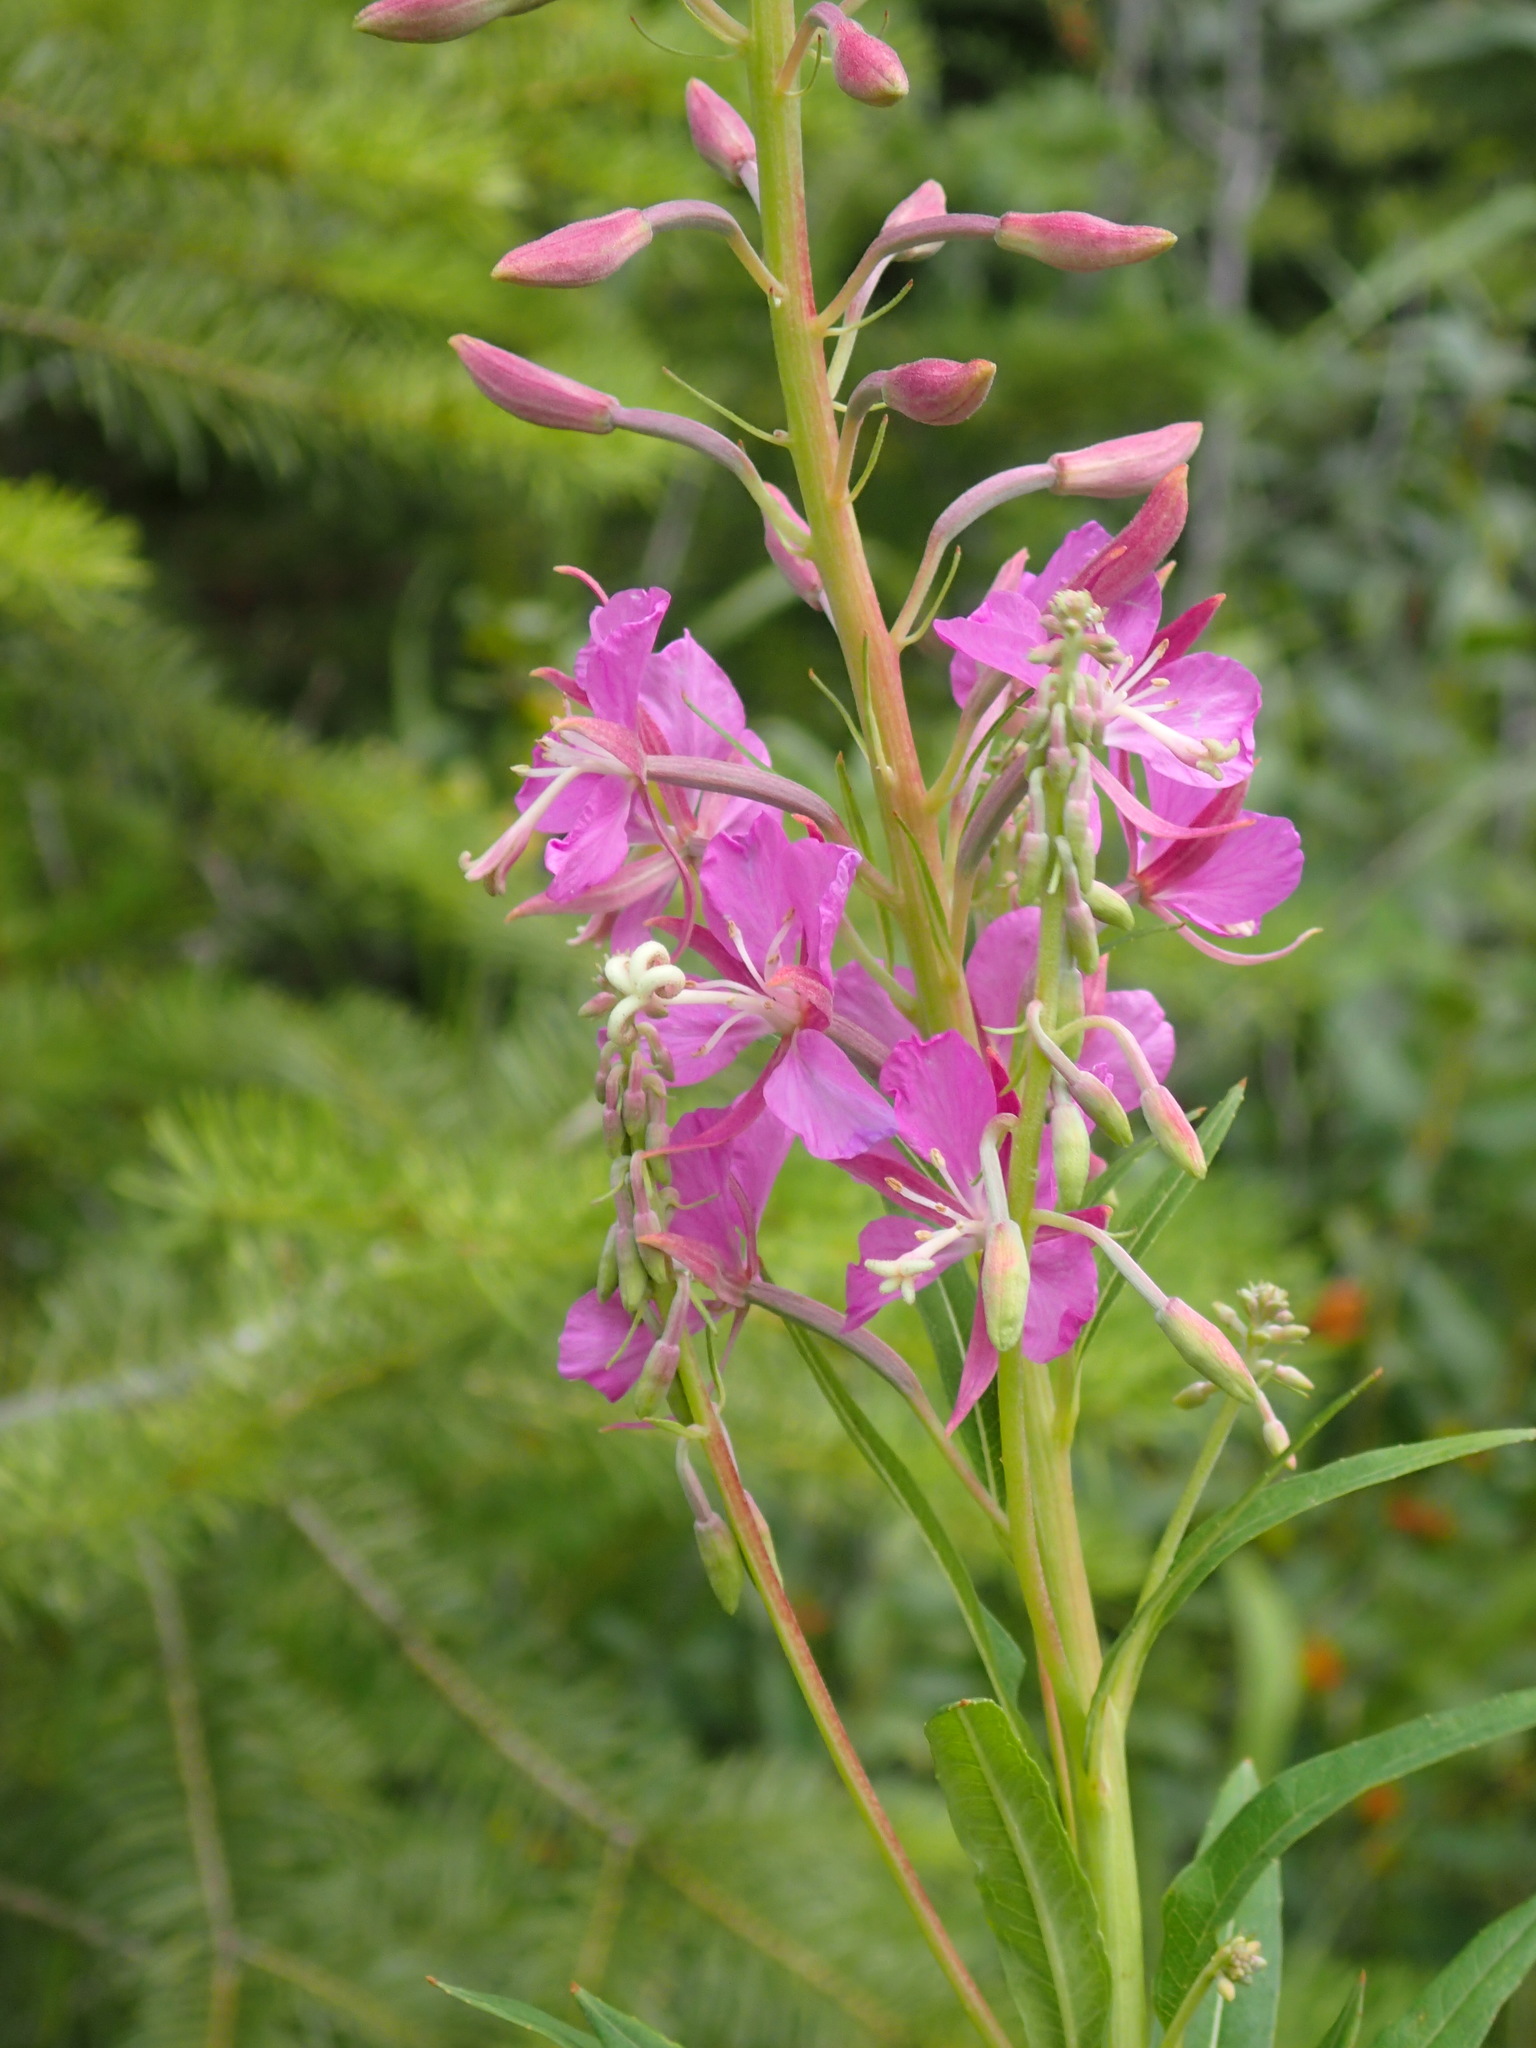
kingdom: Plantae
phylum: Tracheophyta
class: Magnoliopsida
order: Myrtales
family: Onagraceae
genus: Chamaenerion
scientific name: Chamaenerion angustifolium
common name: Fireweed
